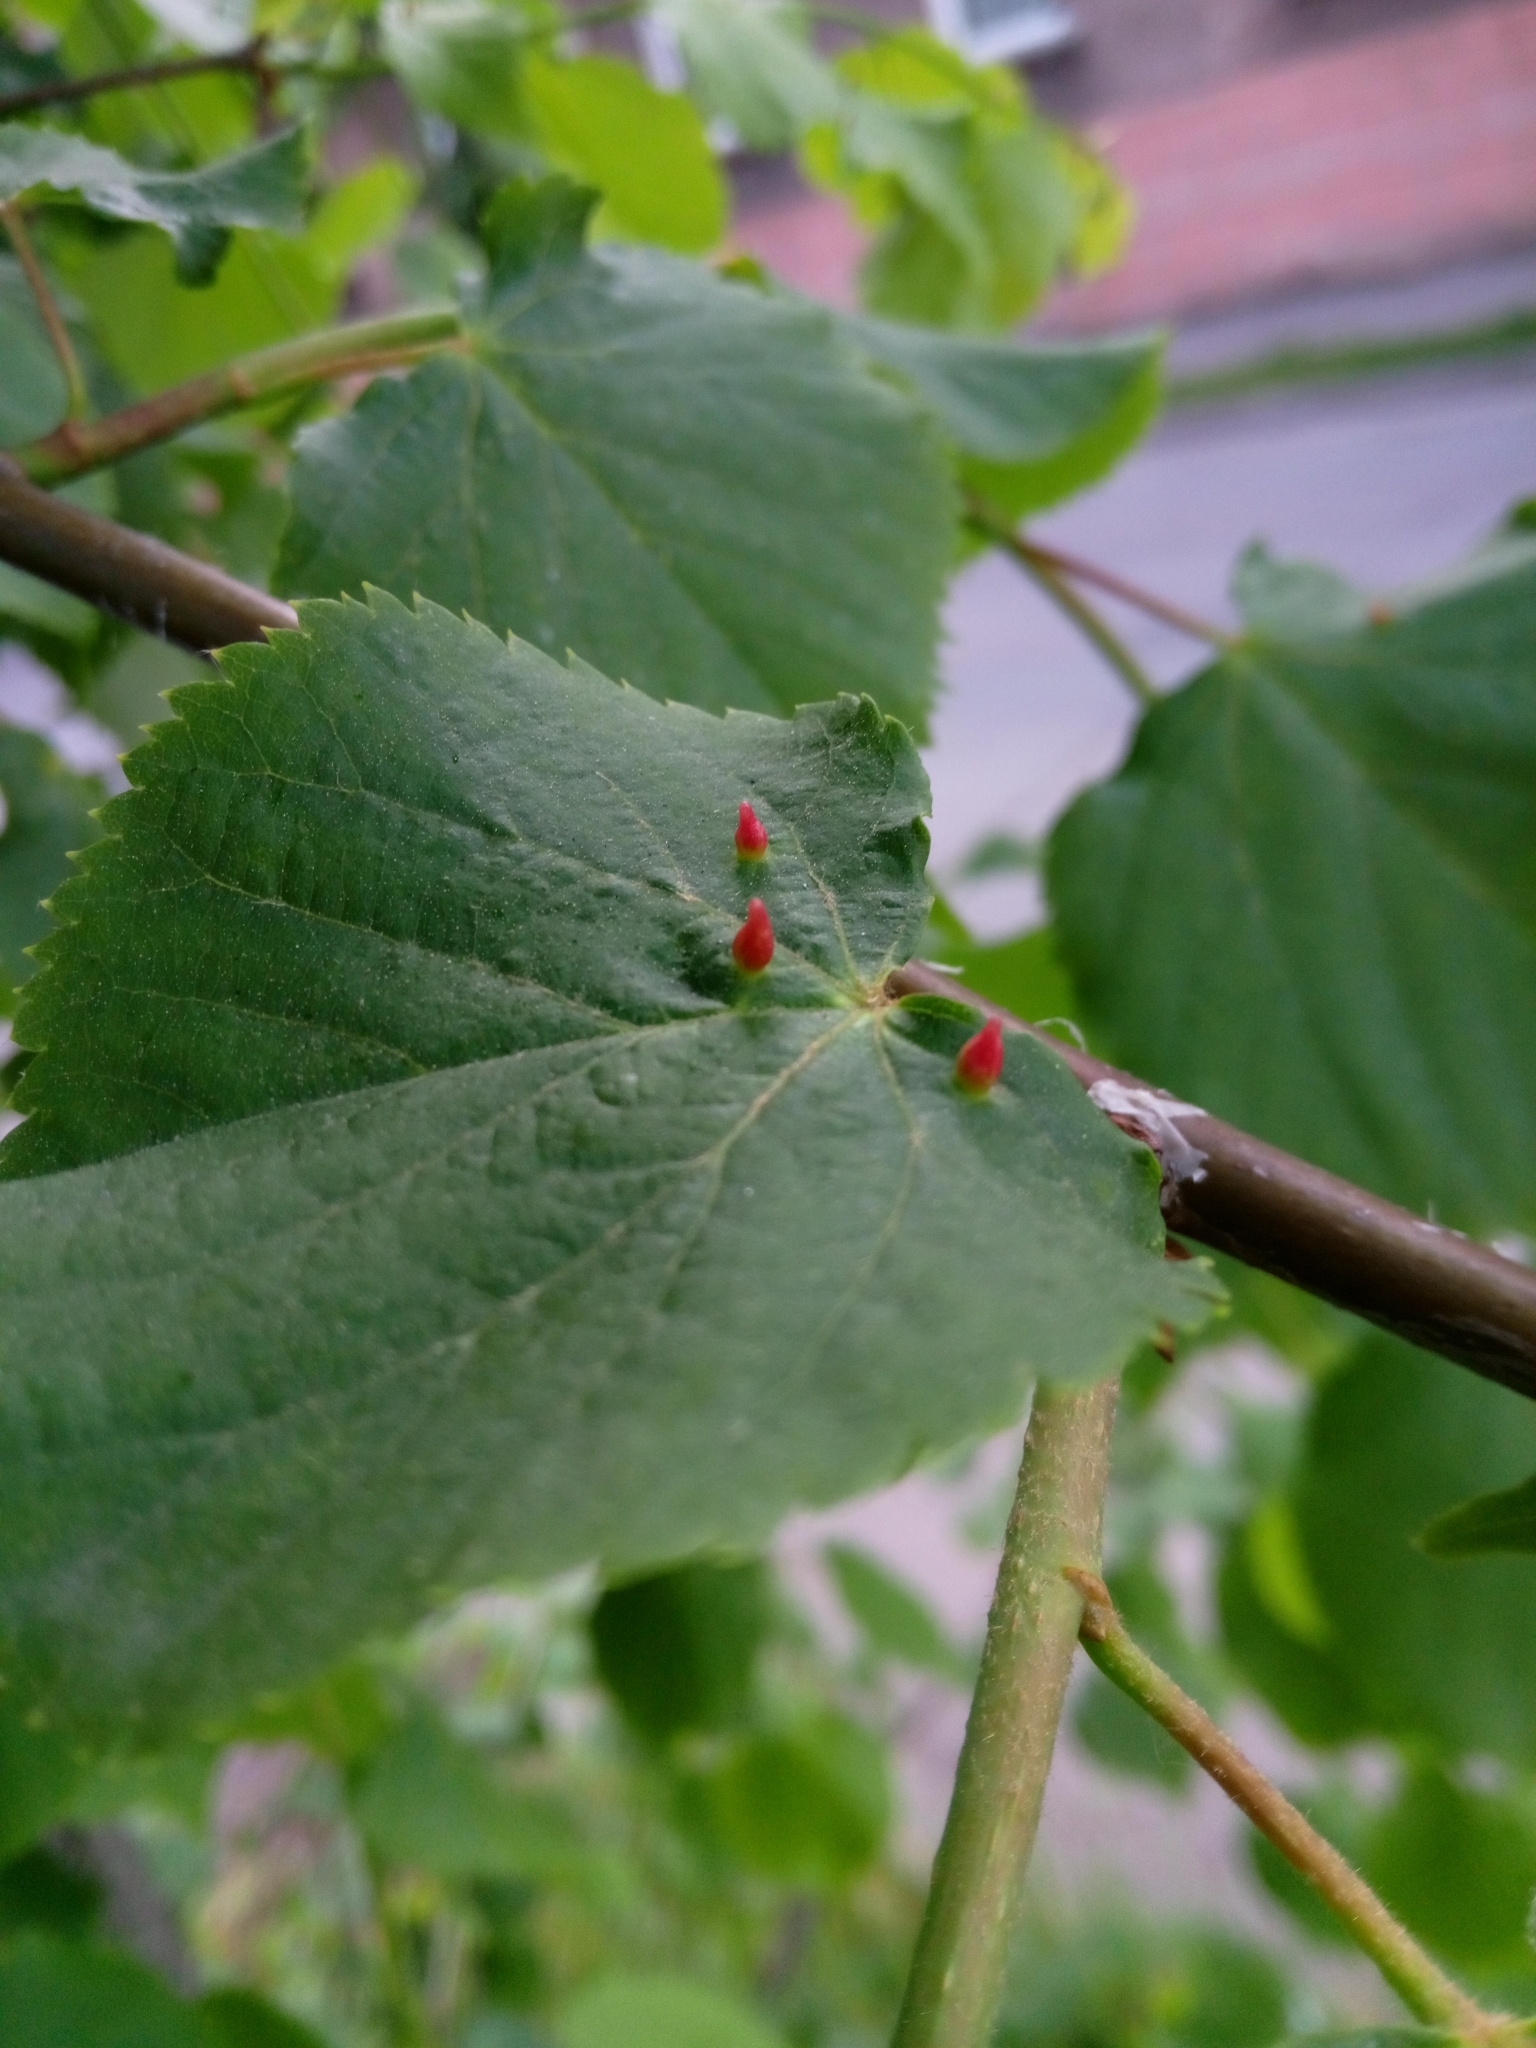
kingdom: Animalia
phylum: Arthropoda
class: Arachnida
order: Trombidiformes
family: Eriophyidae
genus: Eriophyes
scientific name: Eriophyes tiliae
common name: Red nail gall mite
